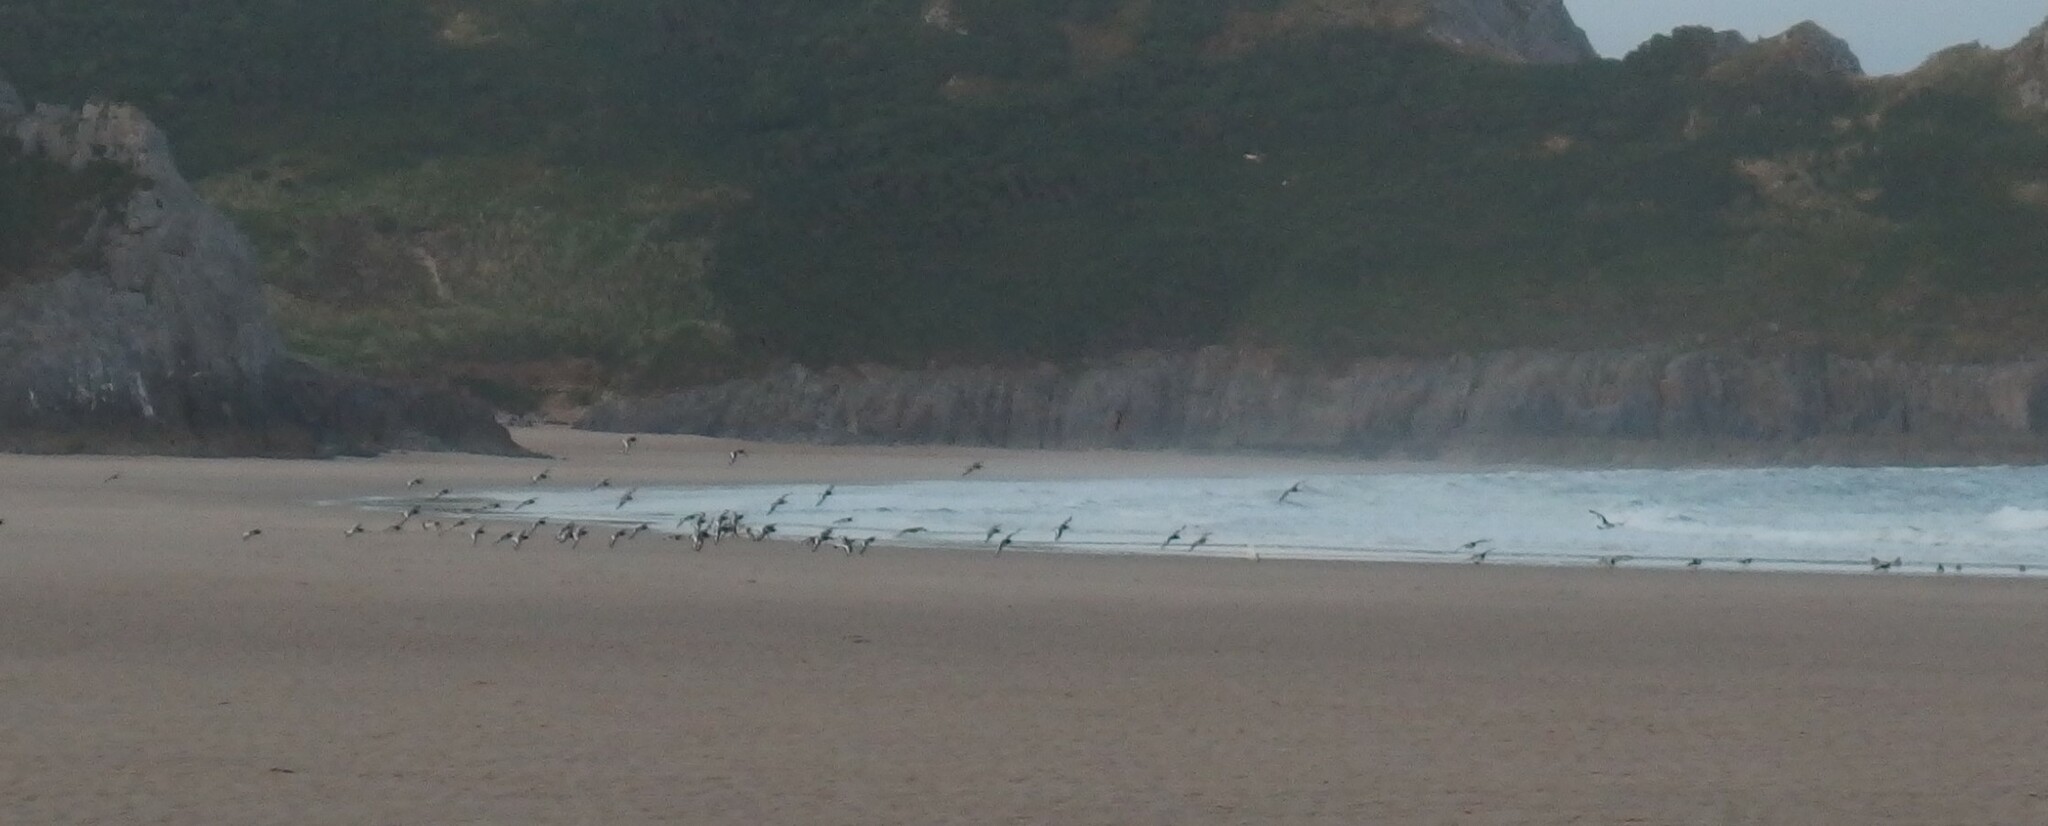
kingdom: Animalia
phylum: Chordata
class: Aves
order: Charadriiformes
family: Haematopodidae
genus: Haematopus
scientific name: Haematopus ostralegus
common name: Eurasian oystercatcher
